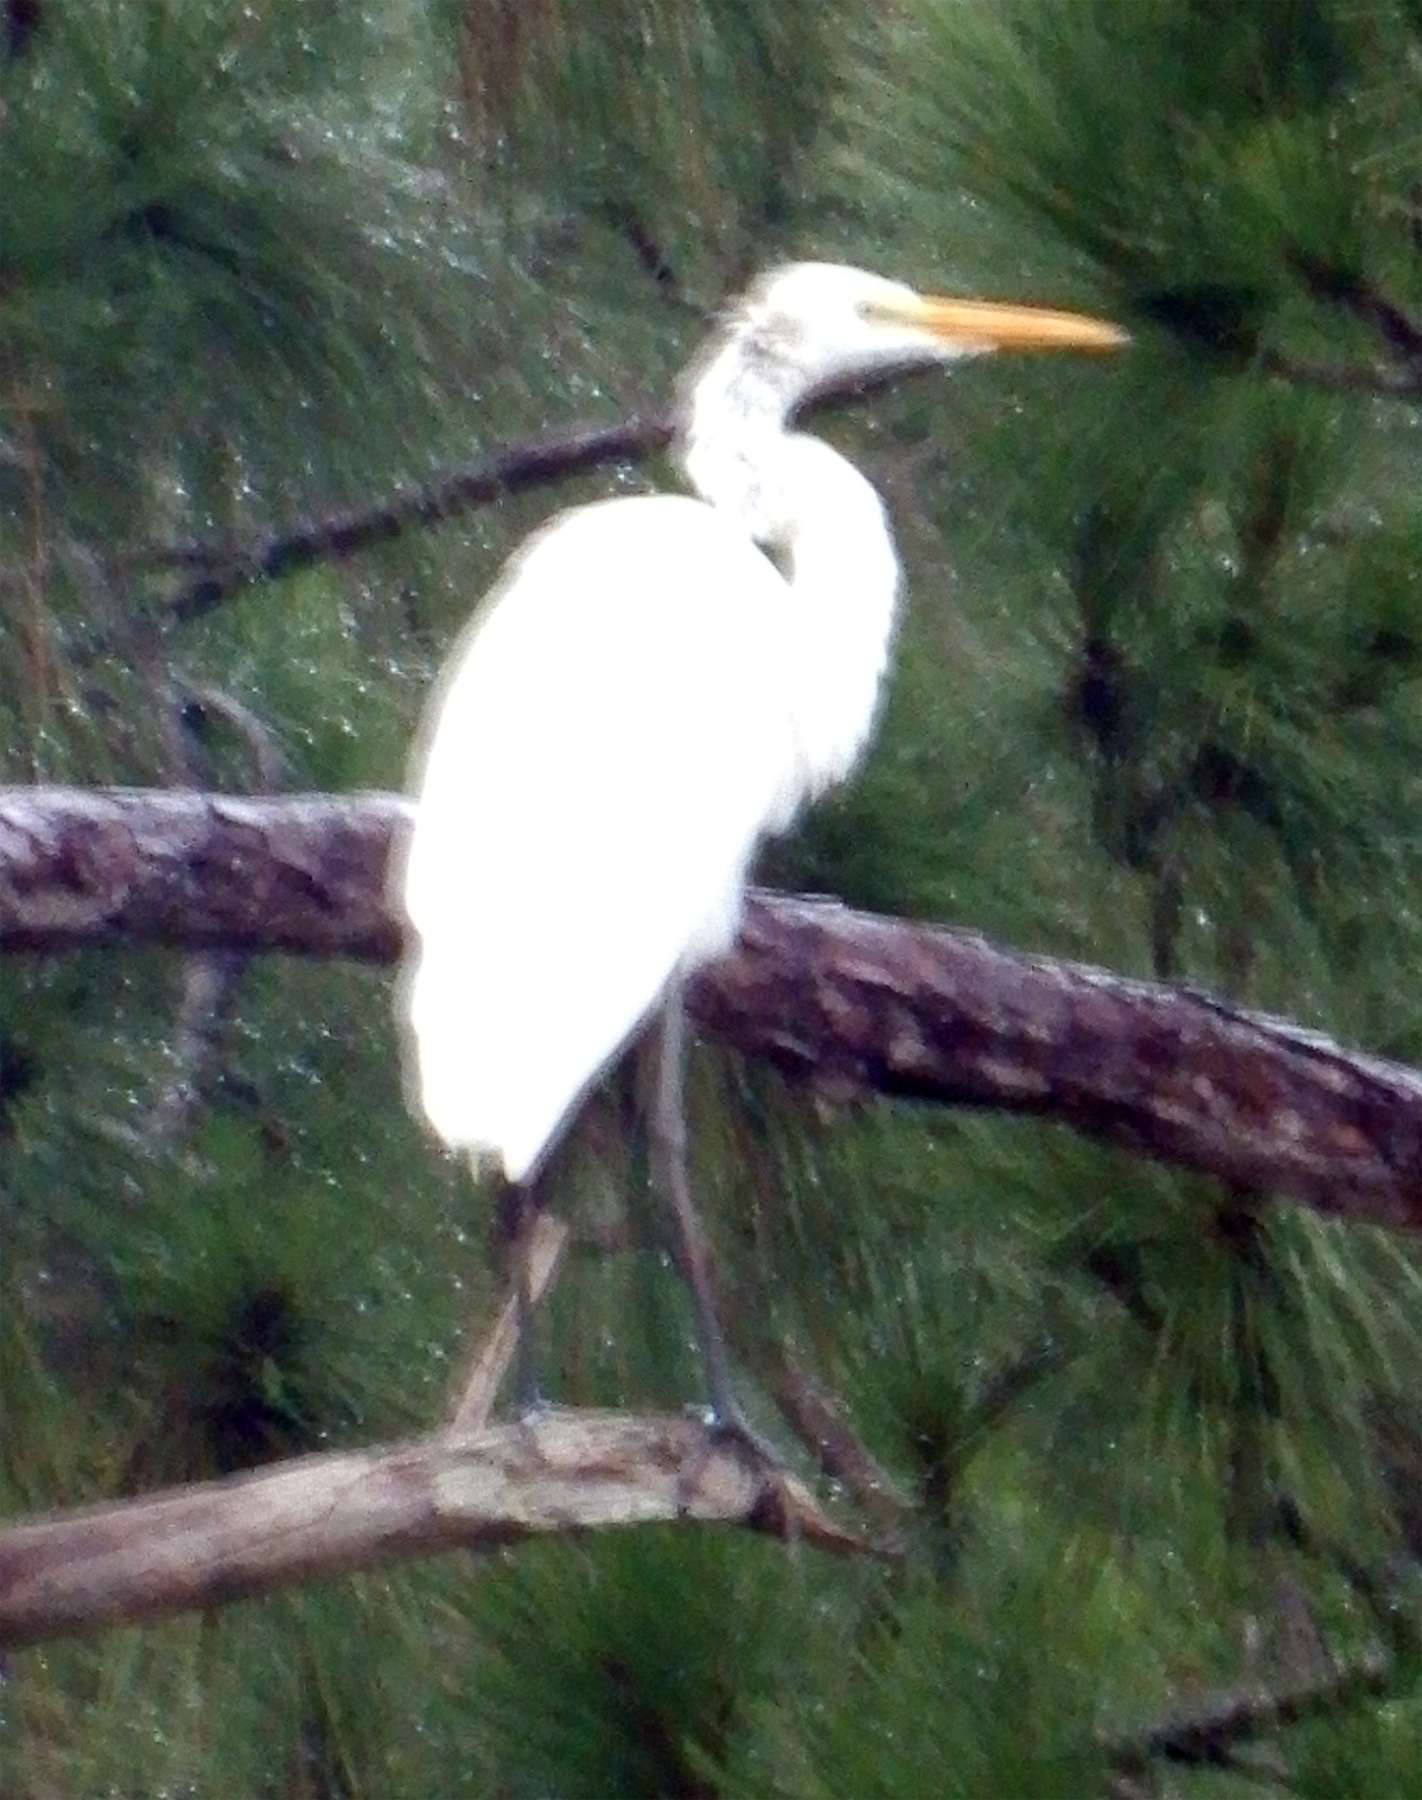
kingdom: Animalia
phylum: Chordata
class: Aves
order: Pelecaniformes
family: Ardeidae
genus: Ardea
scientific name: Ardea alba
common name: Great egret
